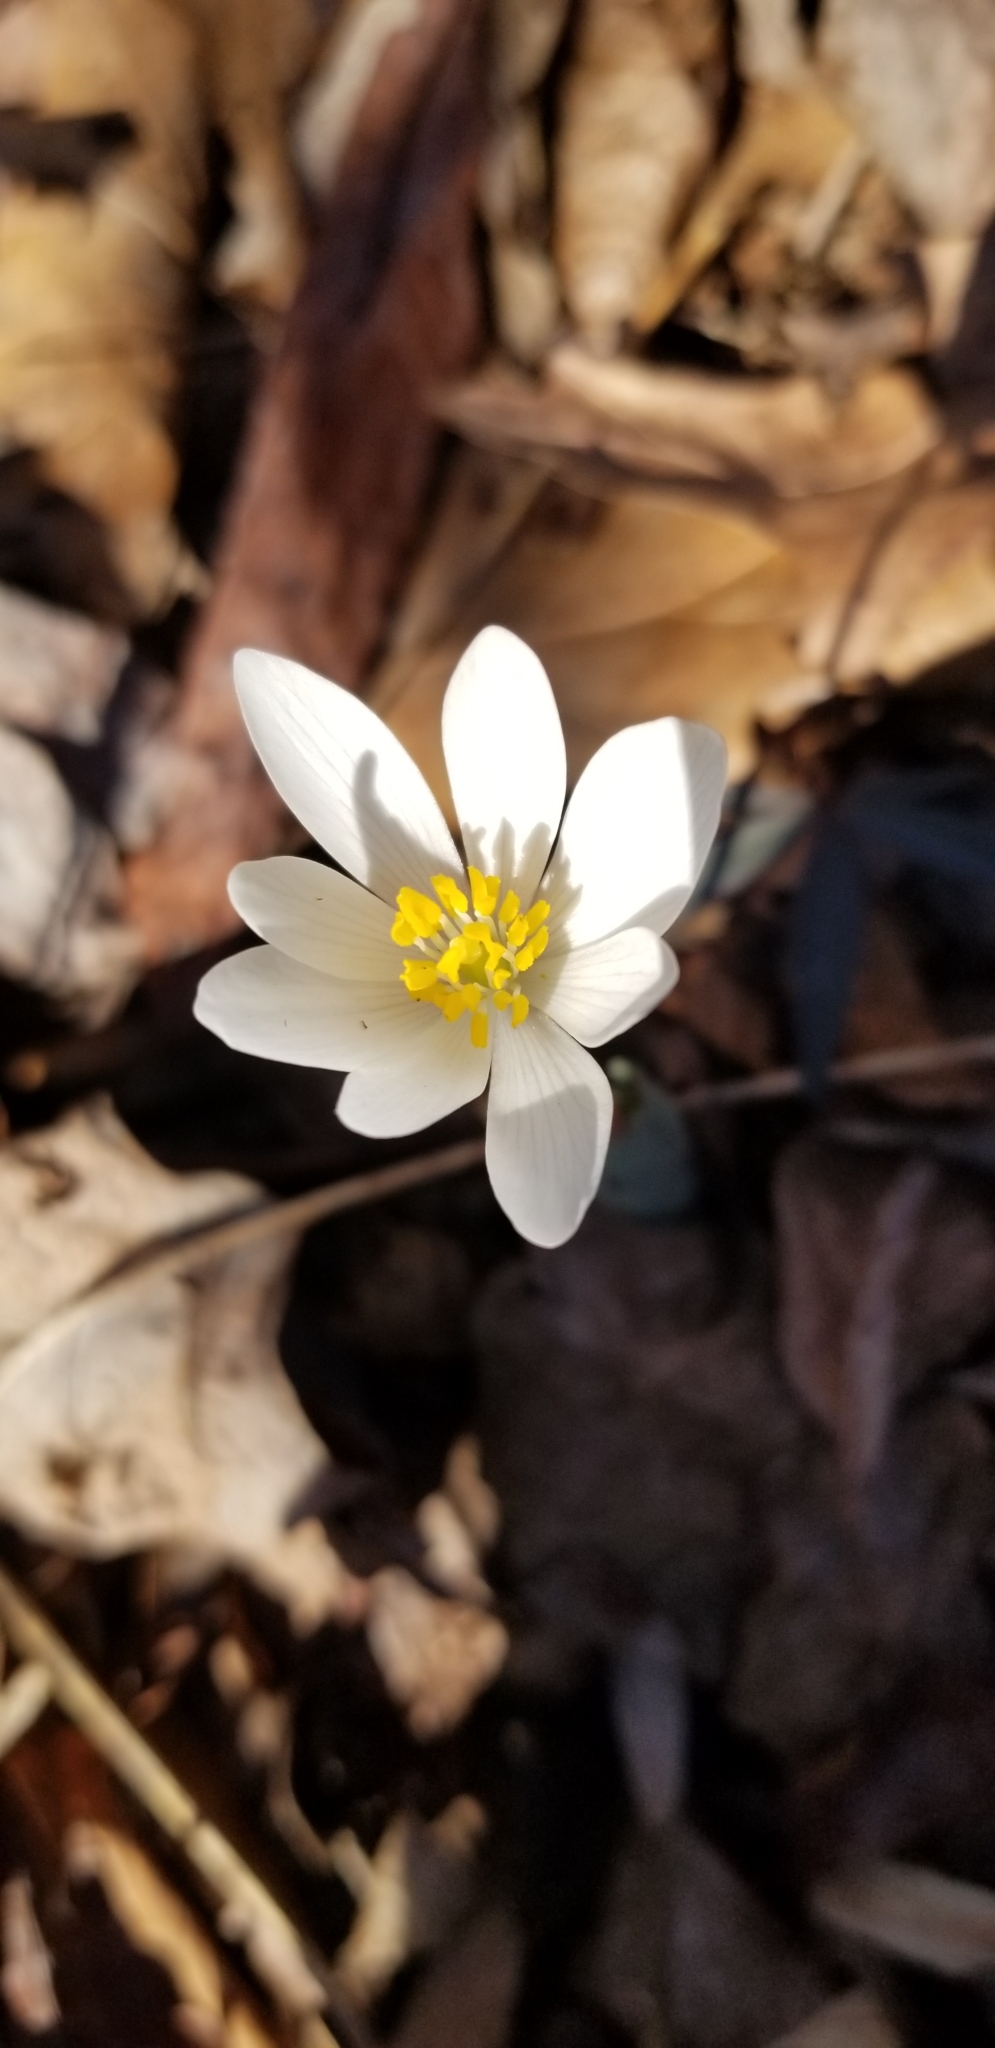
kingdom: Plantae
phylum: Tracheophyta
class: Magnoliopsida
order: Ranunculales
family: Papaveraceae
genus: Sanguinaria
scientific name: Sanguinaria canadensis
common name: Bloodroot
